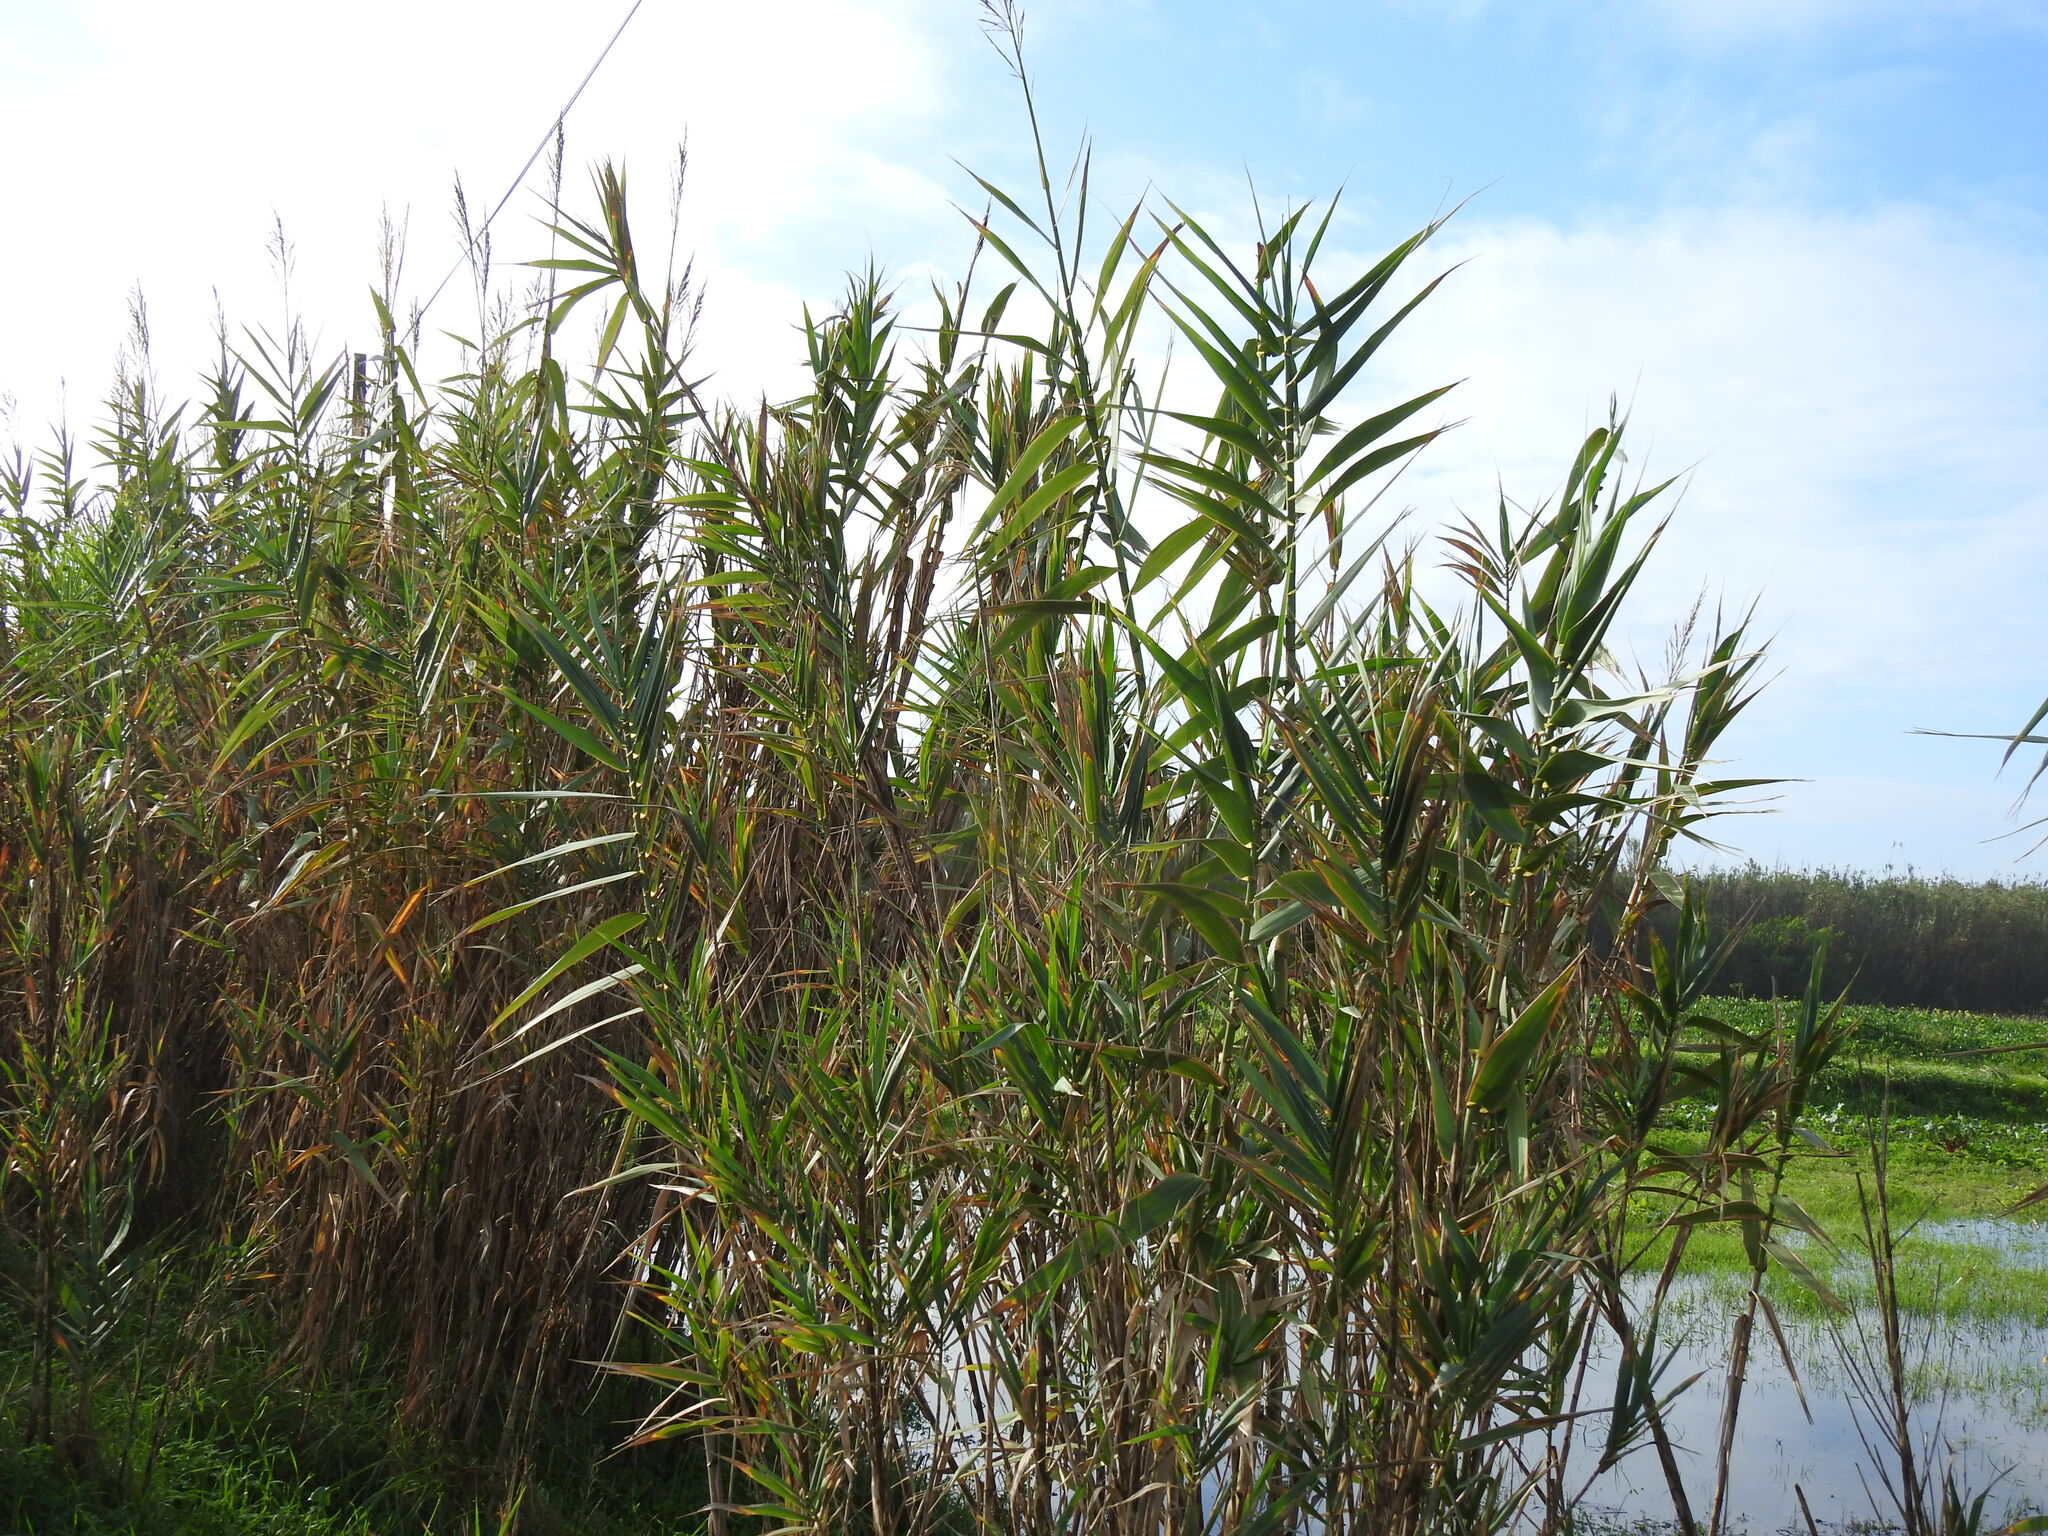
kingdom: Plantae
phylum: Tracheophyta
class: Liliopsida
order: Poales
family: Poaceae
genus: Arundo
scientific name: Arundo donax
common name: Giant reed
